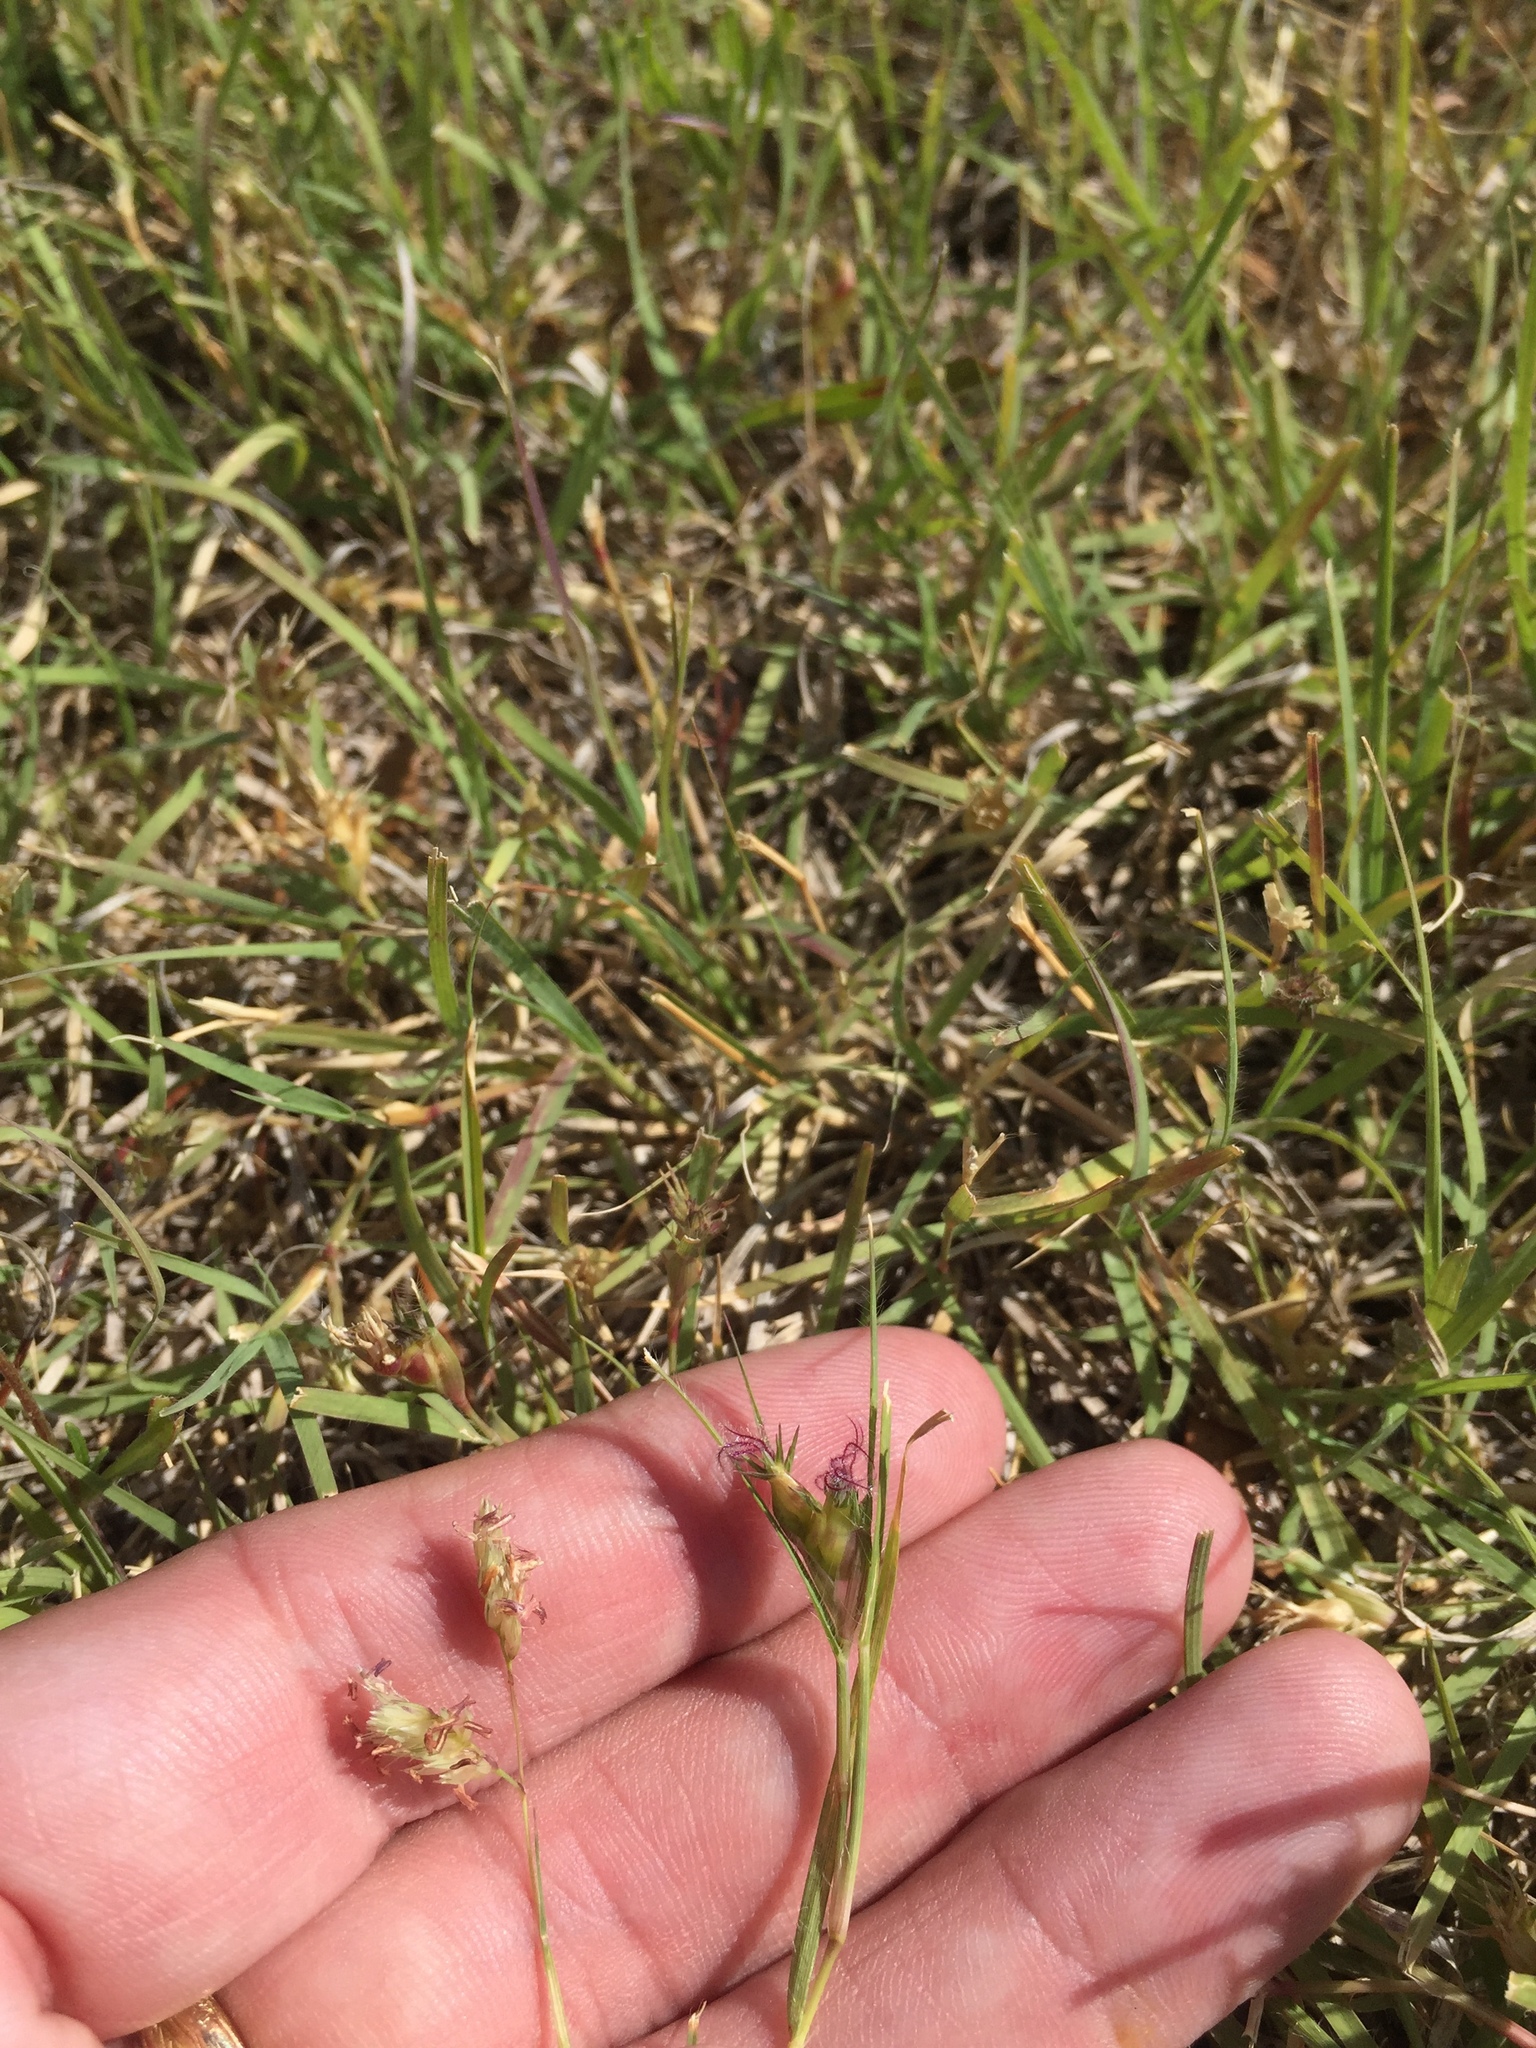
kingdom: Plantae
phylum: Tracheophyta
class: Liliopsida
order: Poales
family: Poaceae
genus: Bouteloua
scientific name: Bouteloua dactyloides
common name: Buffalo grass
